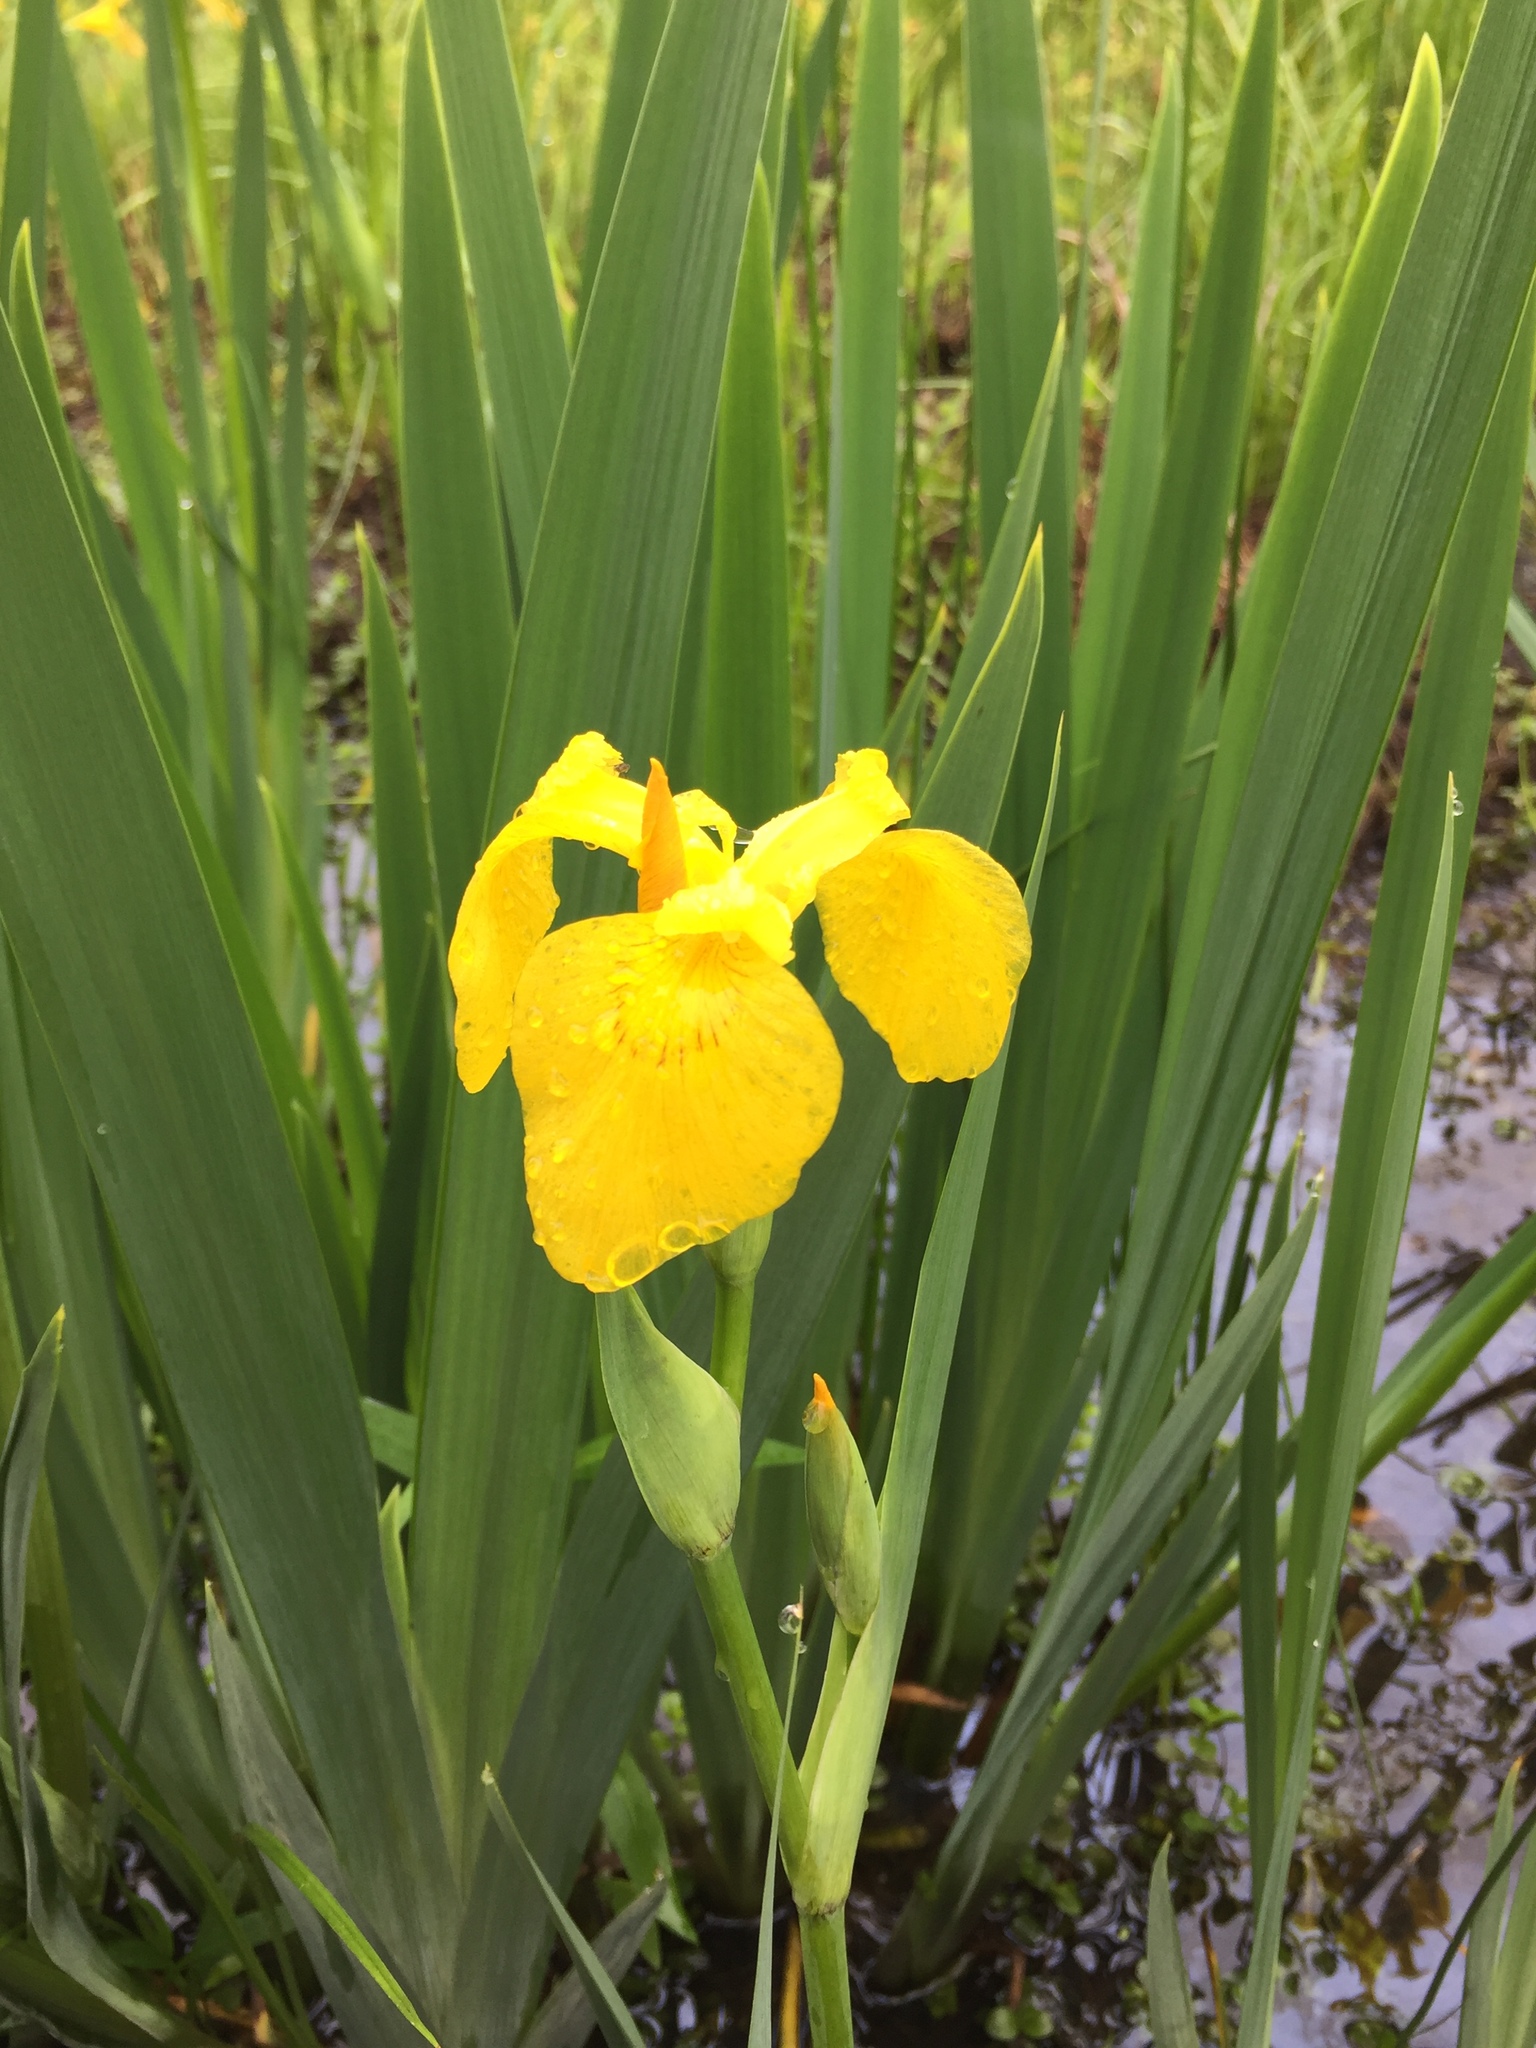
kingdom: Plantae
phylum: Tracheophyta
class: Liliopsida
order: Asparagales
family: Iridaceae
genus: Iris
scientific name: Iris pseudacorus
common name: Yellow flag
